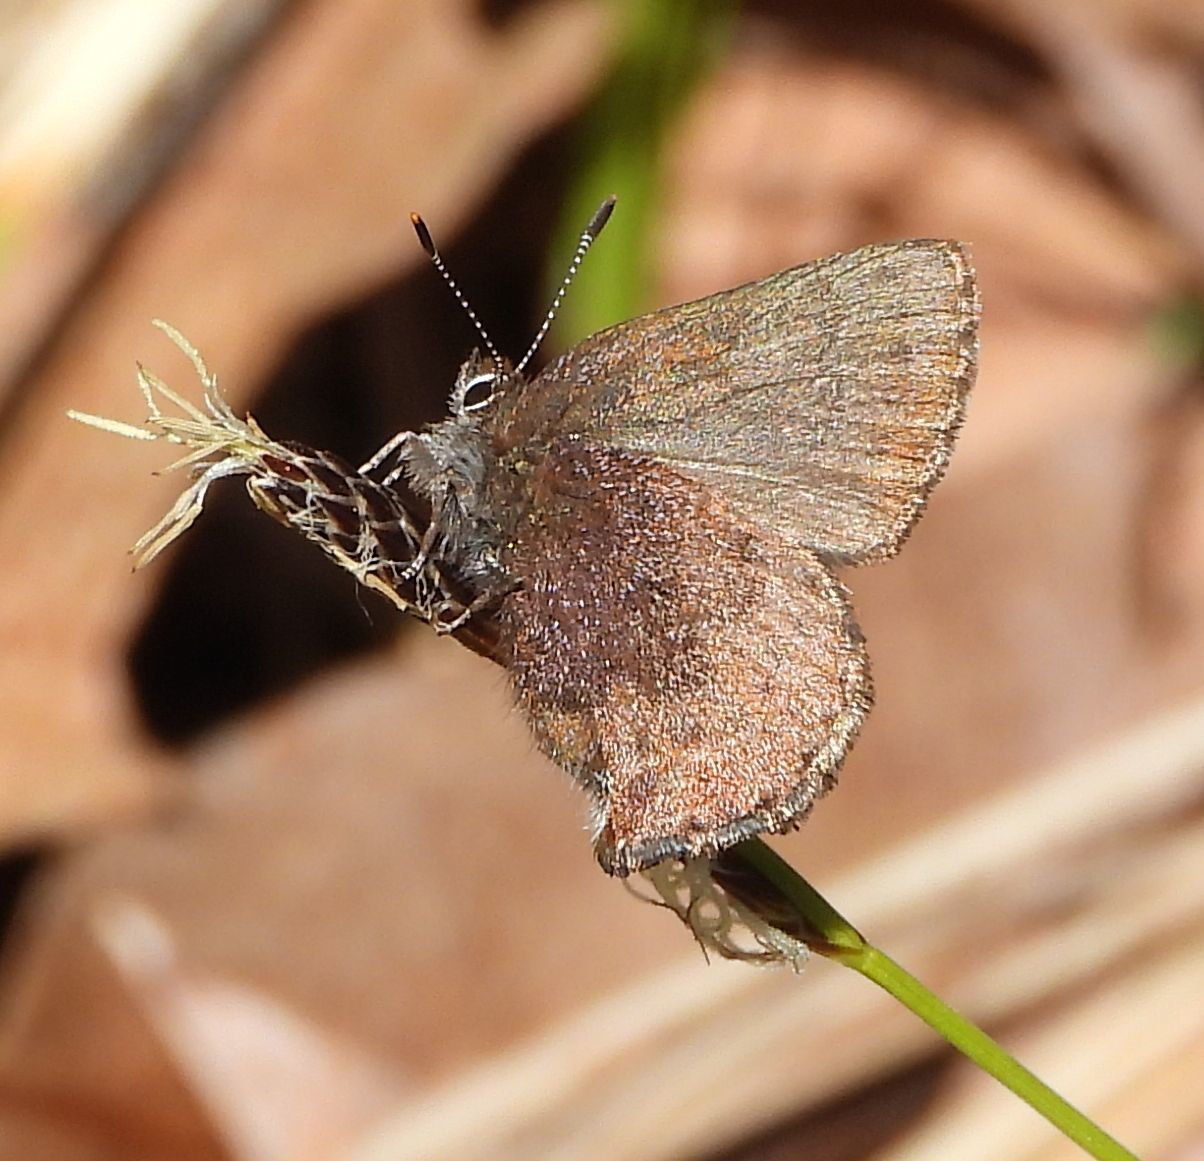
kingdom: Animalia
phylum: Arthropoda
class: Insecta
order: Lepidoptera
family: Lycaenidae
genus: Incisalia
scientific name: Incisalia irioides
